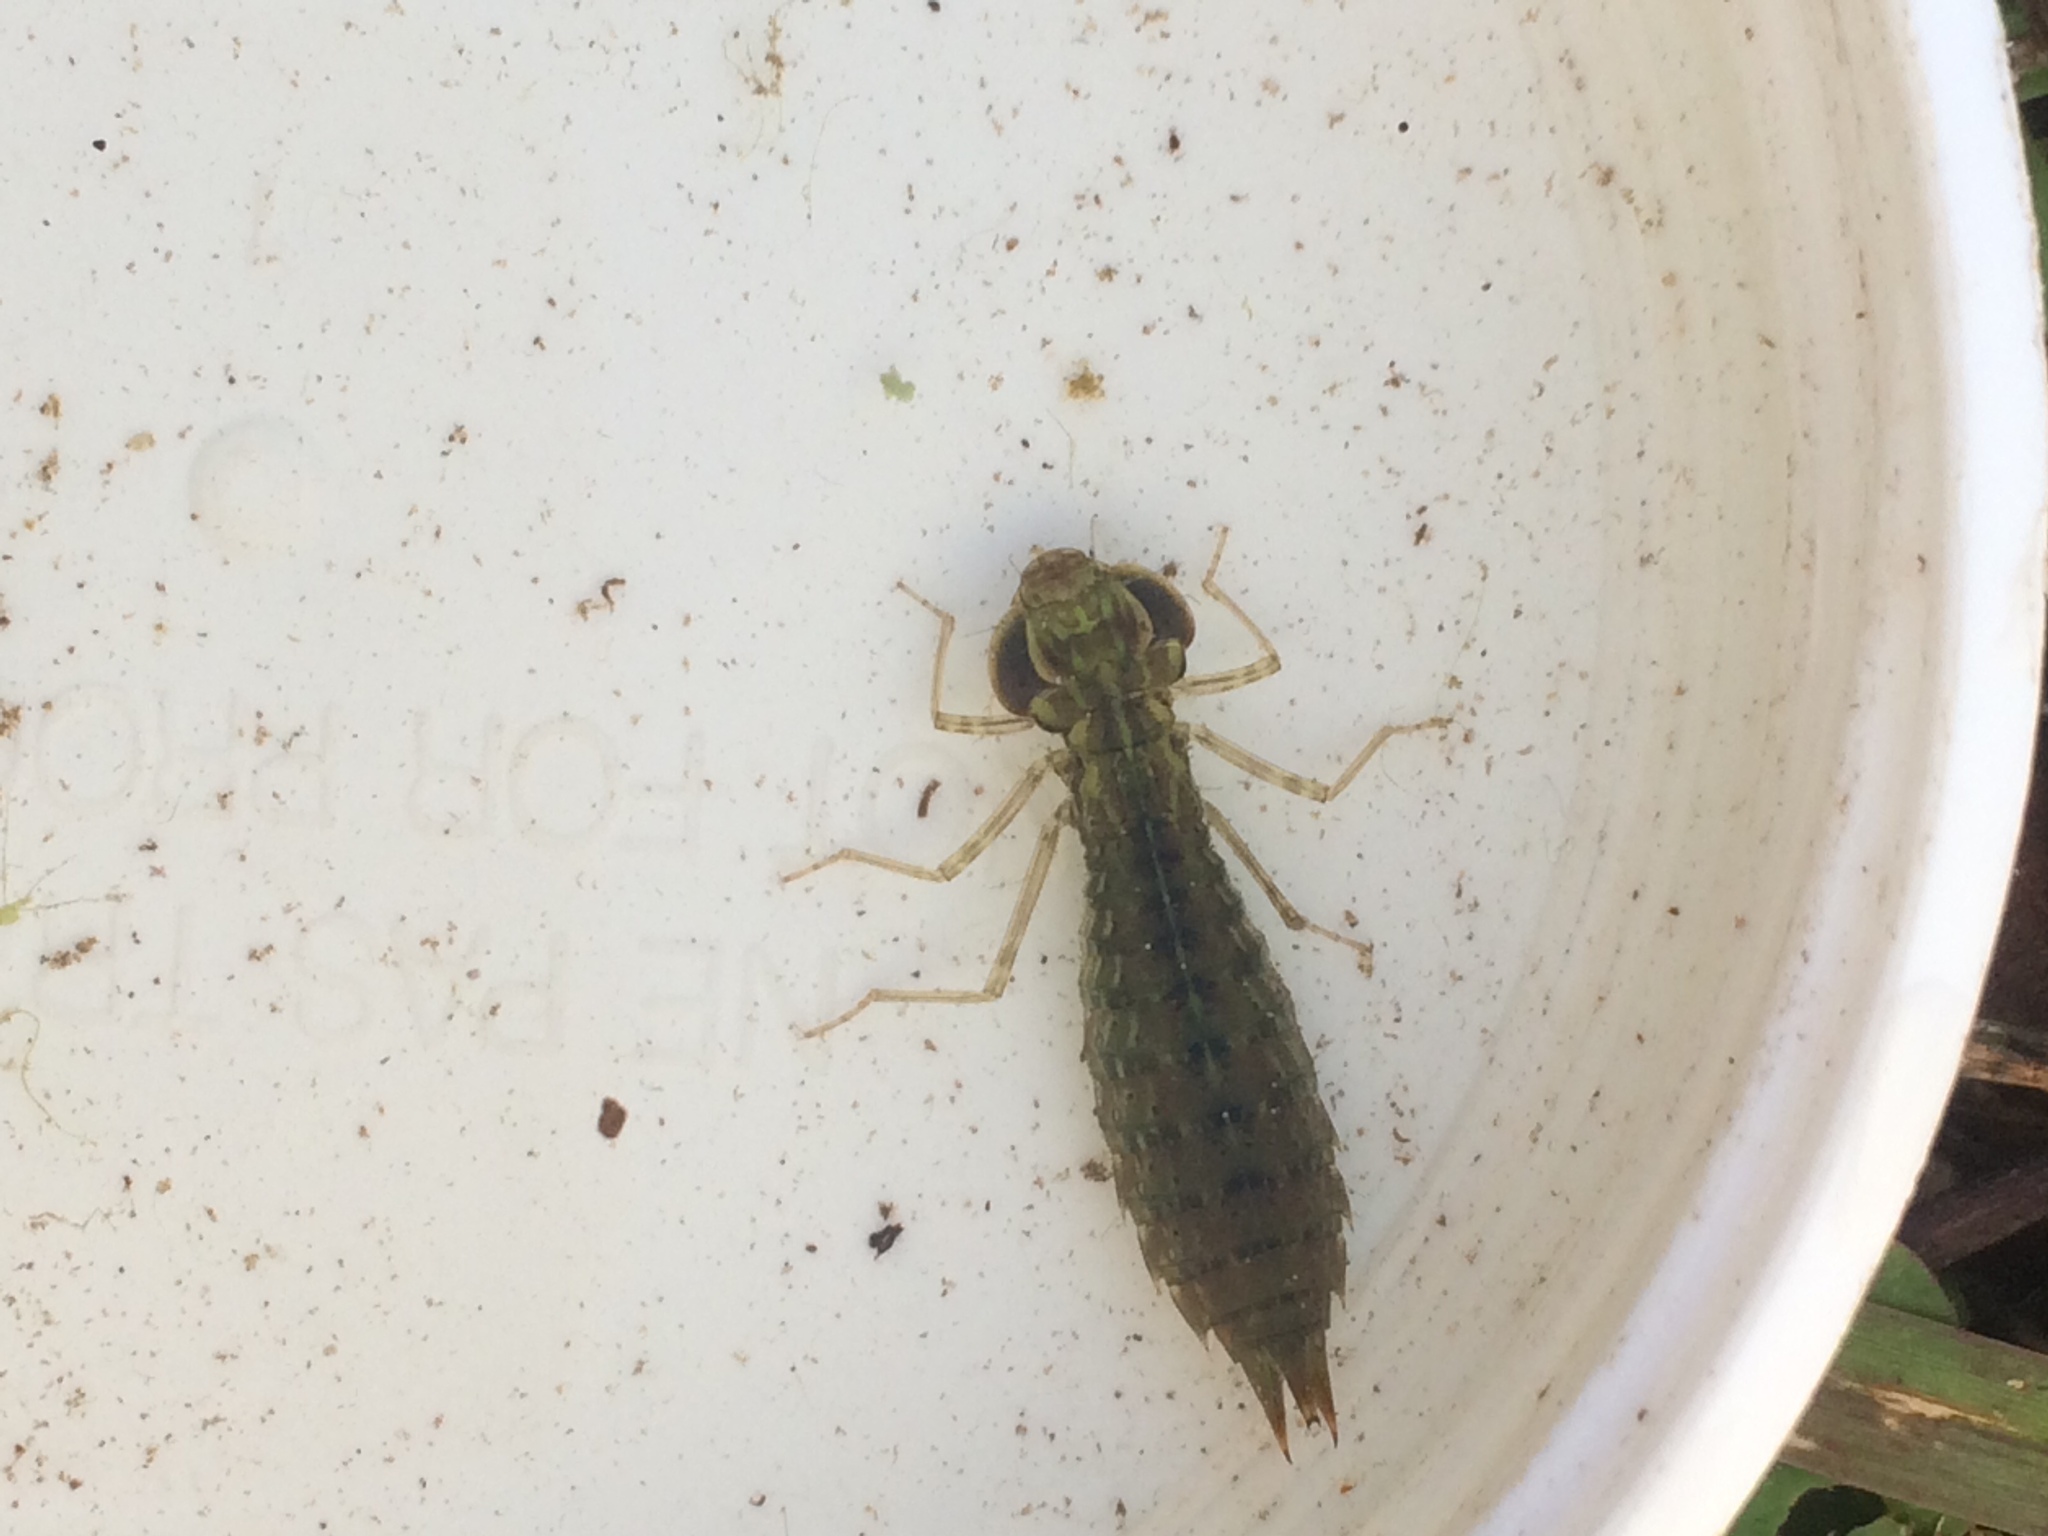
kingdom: Animalia
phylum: Arthropoda
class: Insecta
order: Odonata
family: Aeshnidae
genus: Anax
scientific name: Anax
